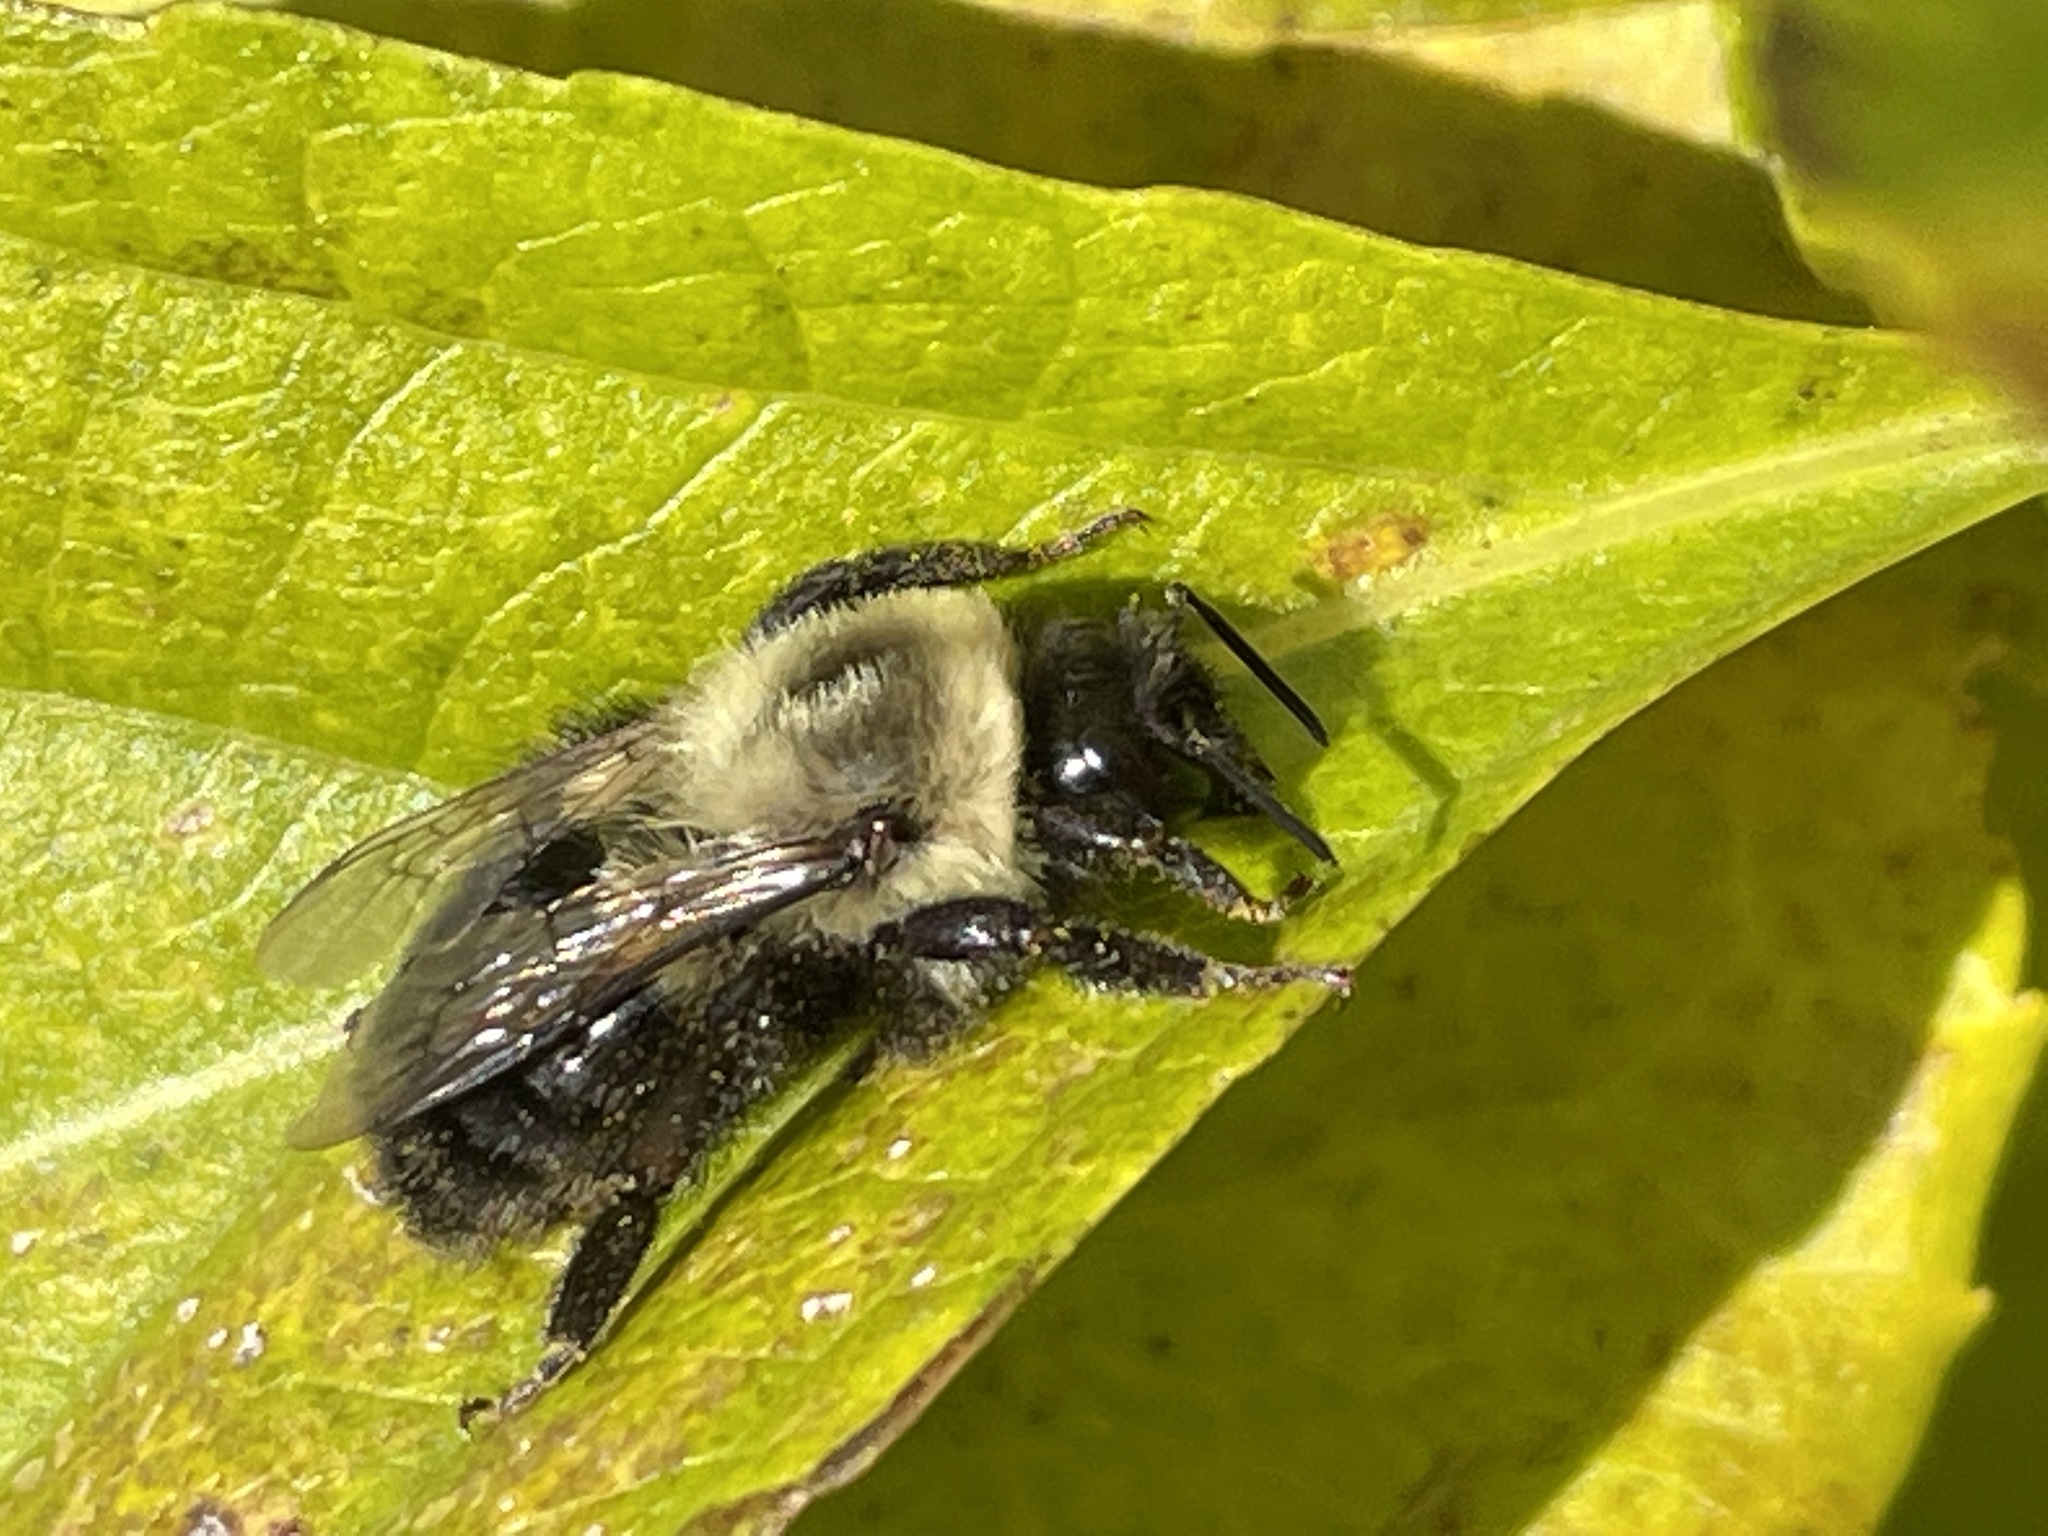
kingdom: Animalia
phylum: Arthropoda
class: Insecta
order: Hymenoptera
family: Apidae
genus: Bombus
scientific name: Bombus impatiens
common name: Common eastern bumble bee
